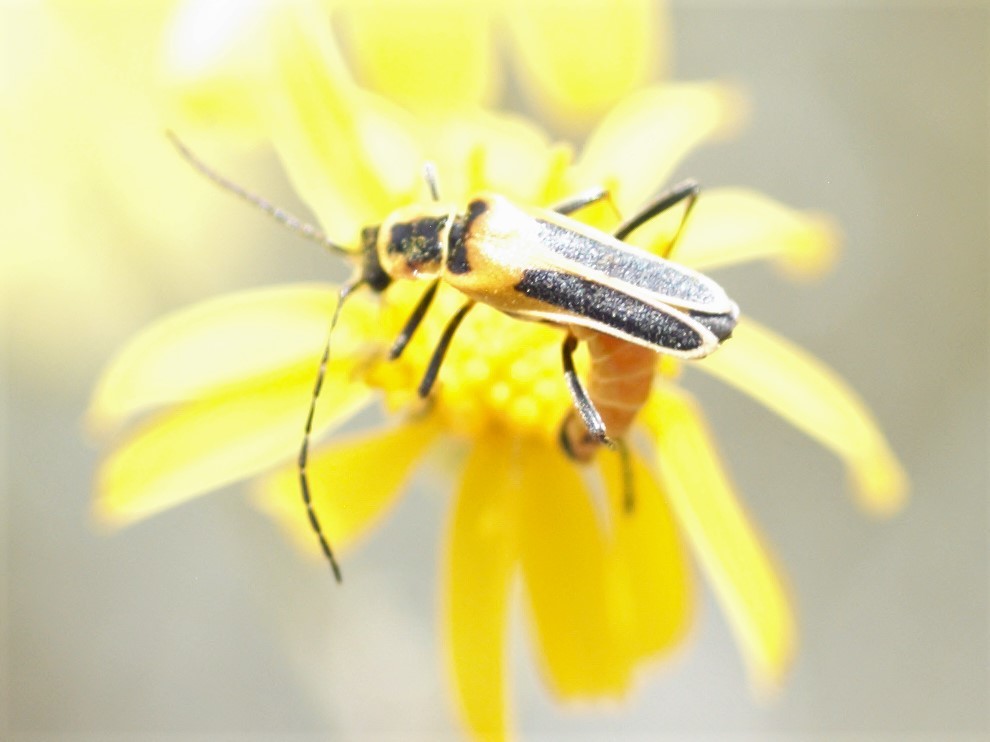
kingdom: Animalia
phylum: Arthropoda
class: Insecta
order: Coleoptera
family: Cantharidae
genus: Chauliognathus
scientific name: Chauliognathus lewisi
